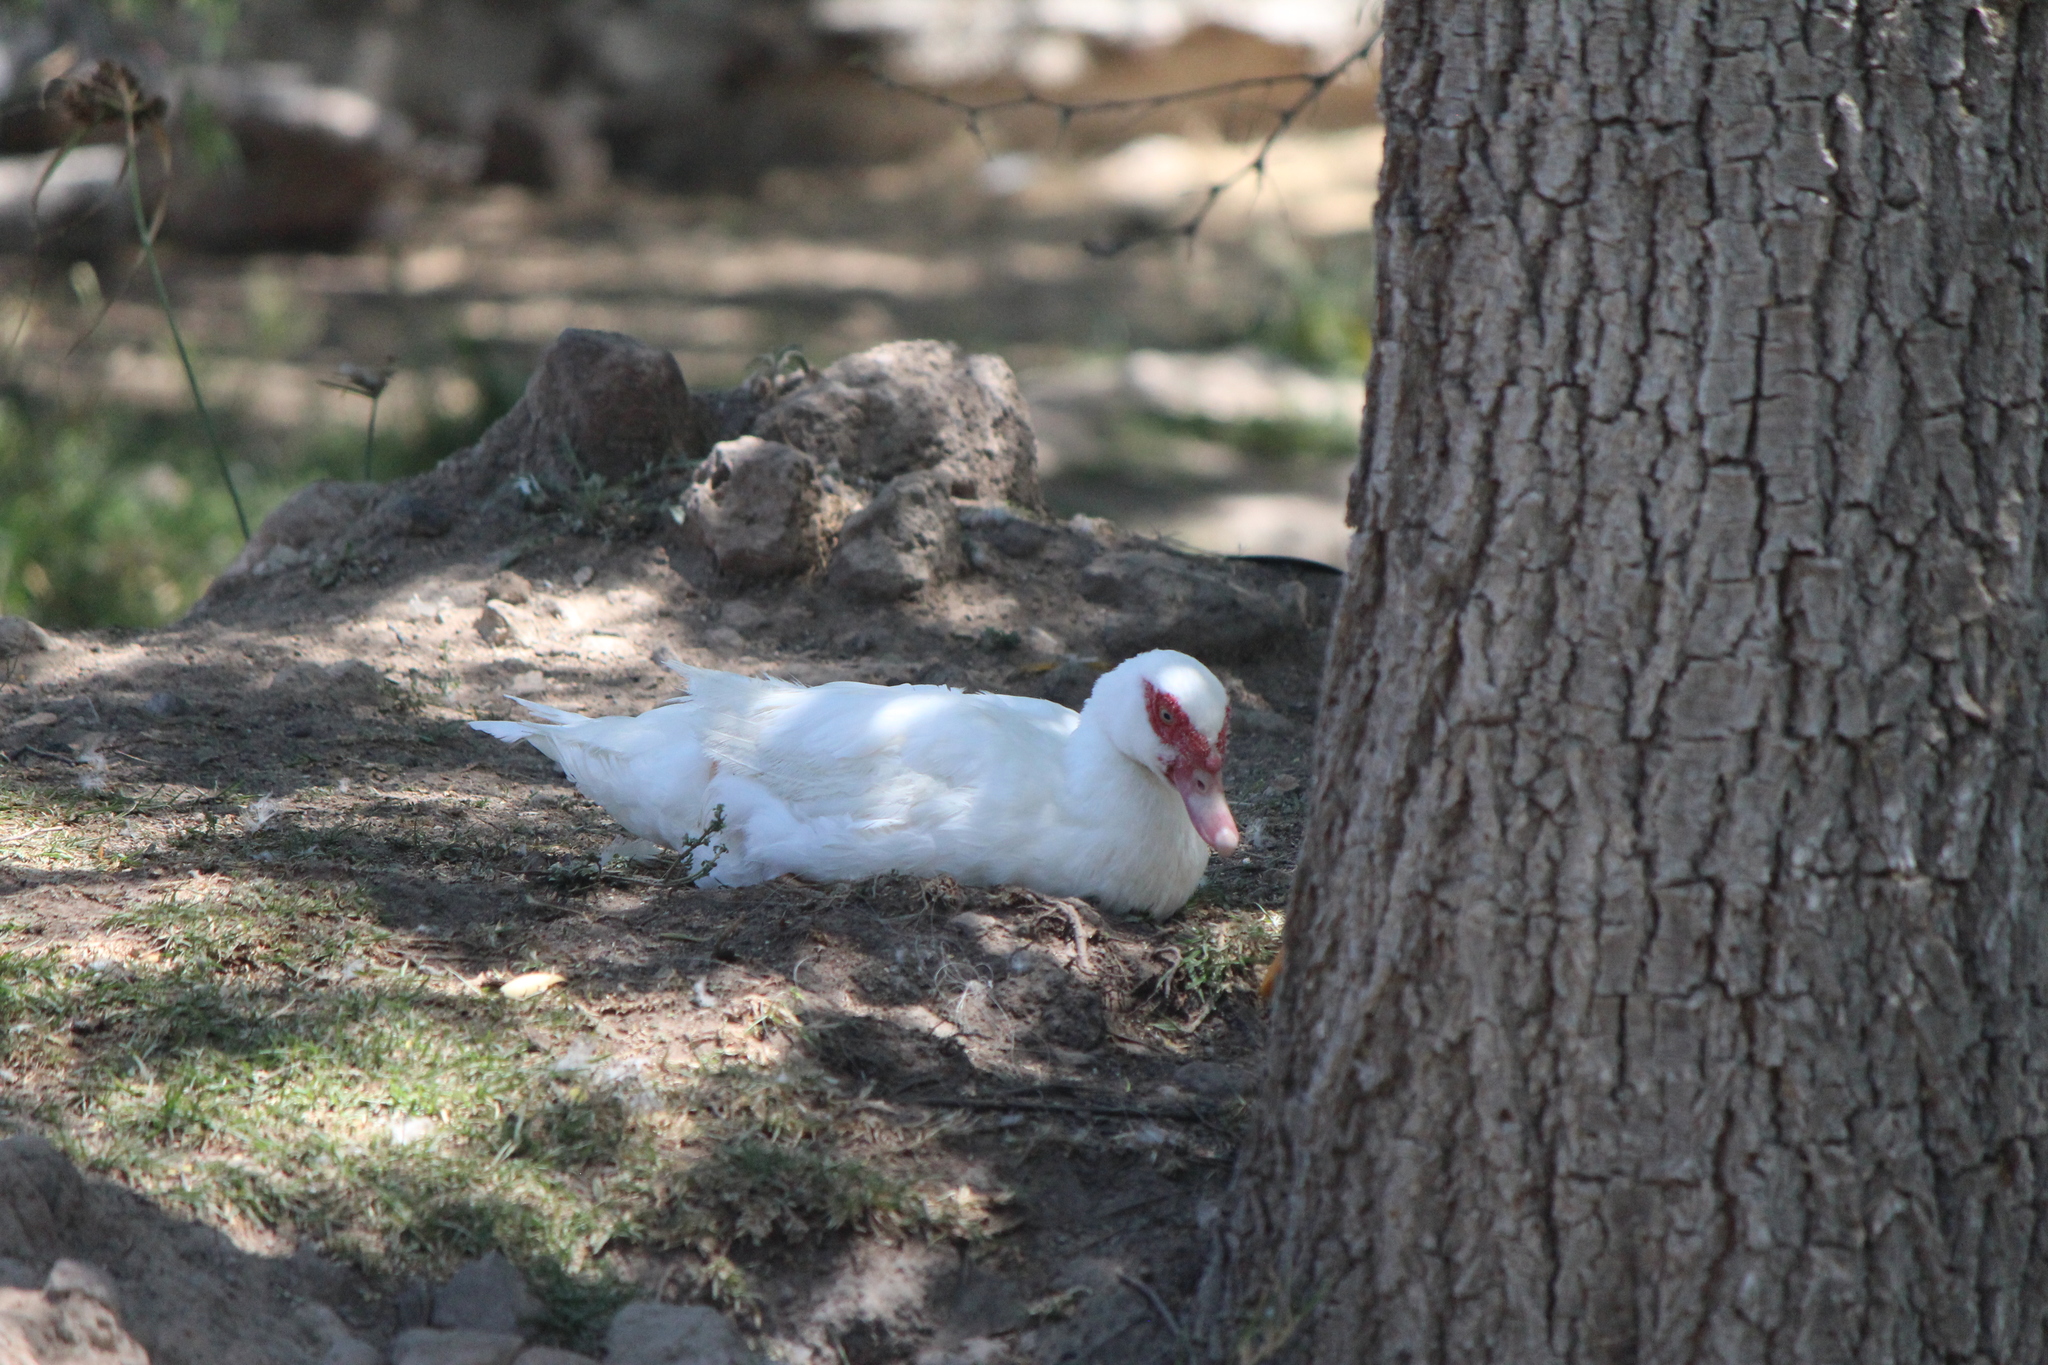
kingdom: Animalia
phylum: Chordata
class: Aves
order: Anseriformes
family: Anatidae
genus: Cairina
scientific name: Cairina moschata
